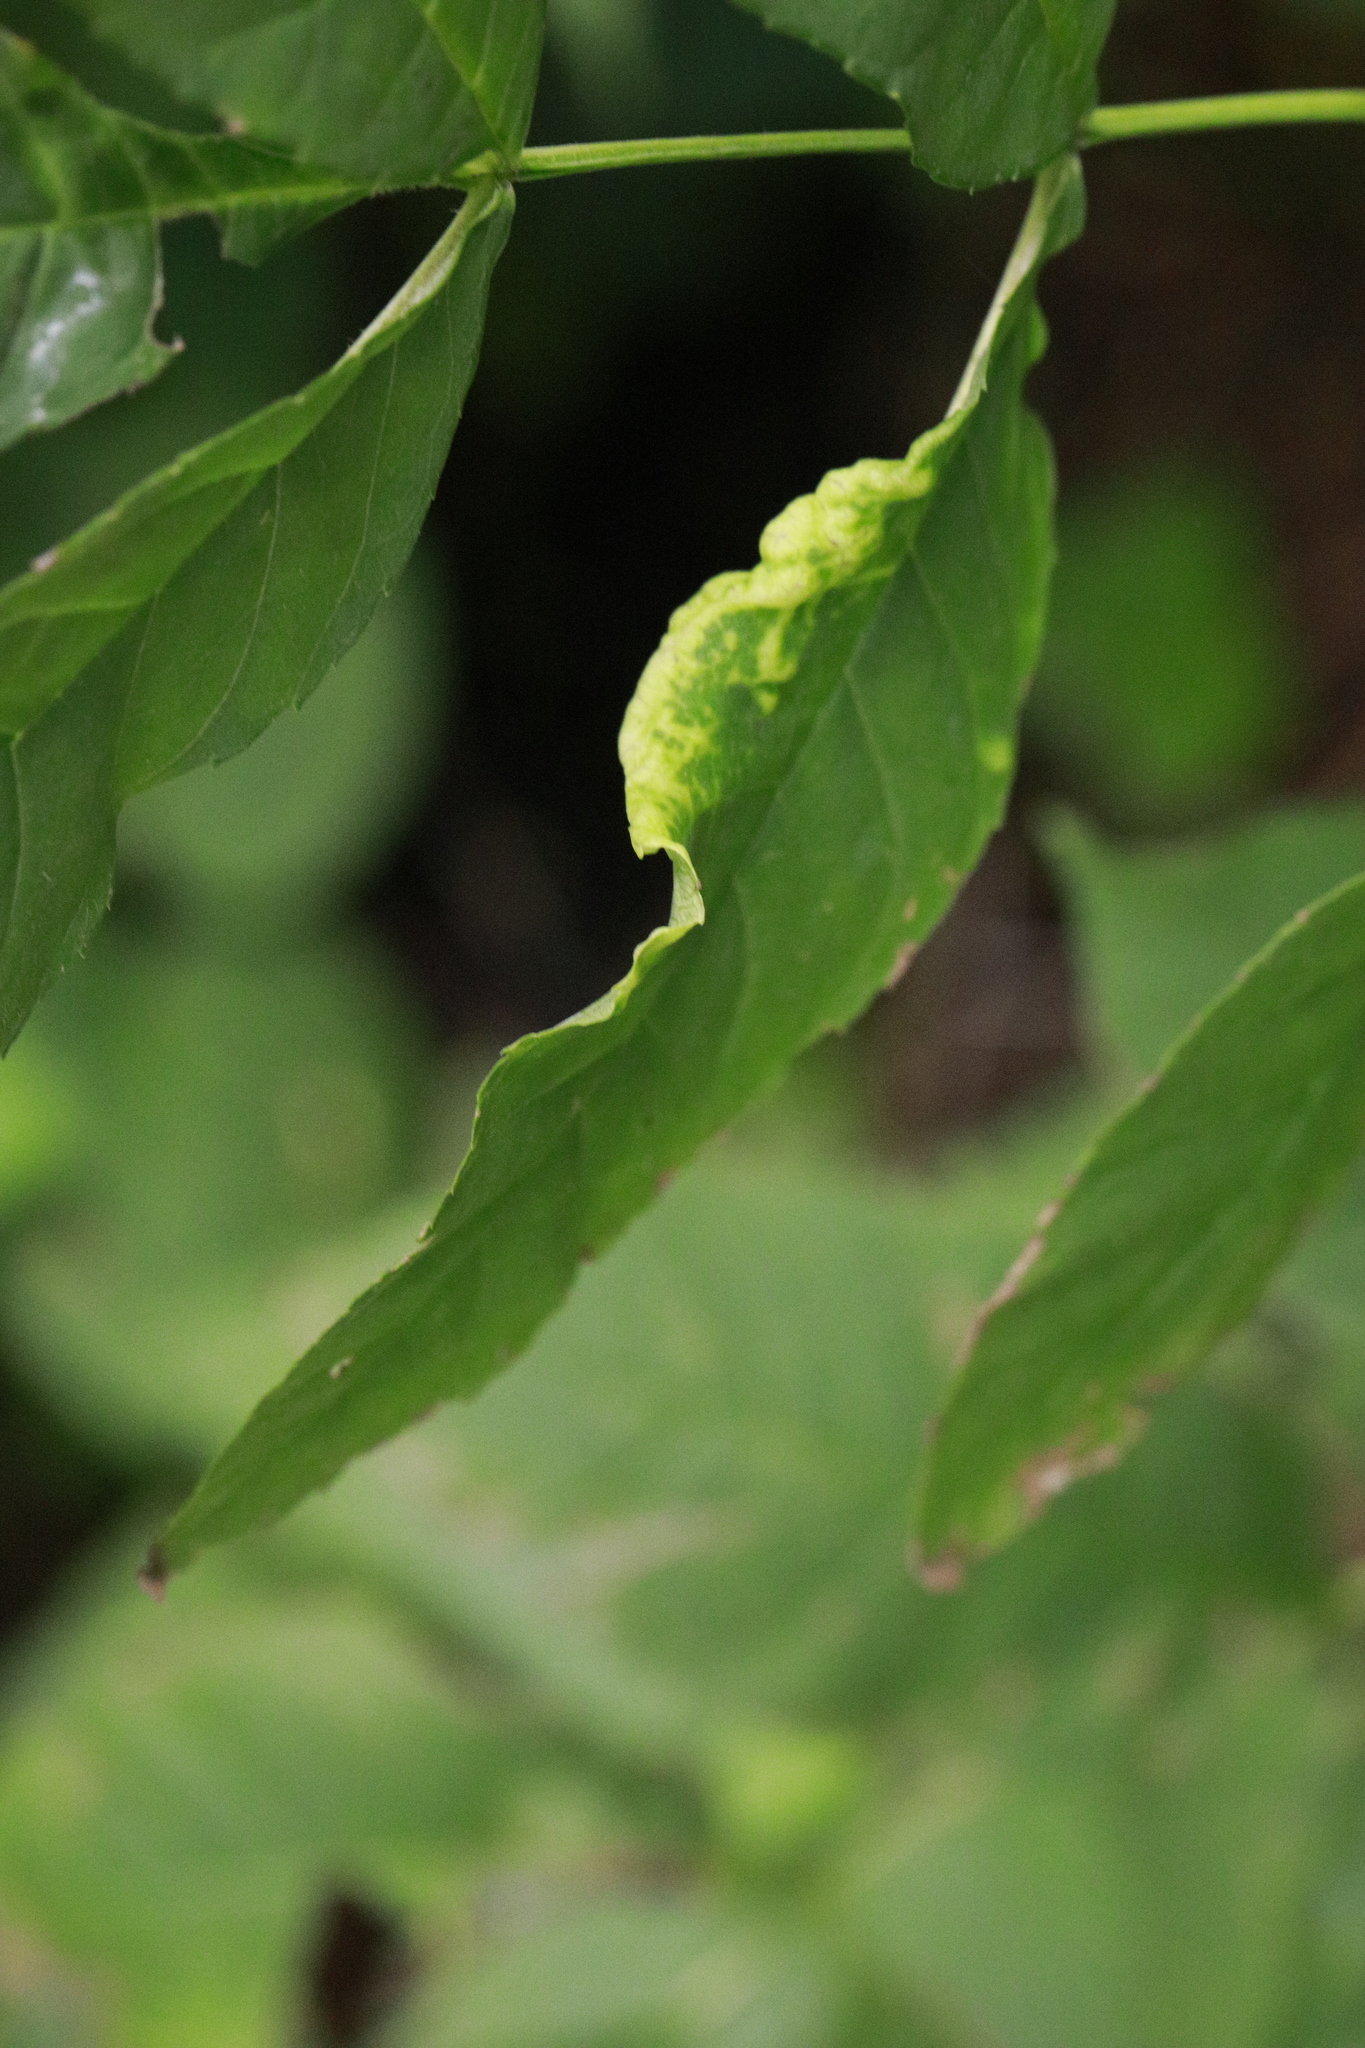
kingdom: Animalia
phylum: Arthropoda
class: Insecta
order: Hemiptera
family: Liviidae
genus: Psyllopsis
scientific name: Psyllopsis fraxini
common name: Jumping plant louse
